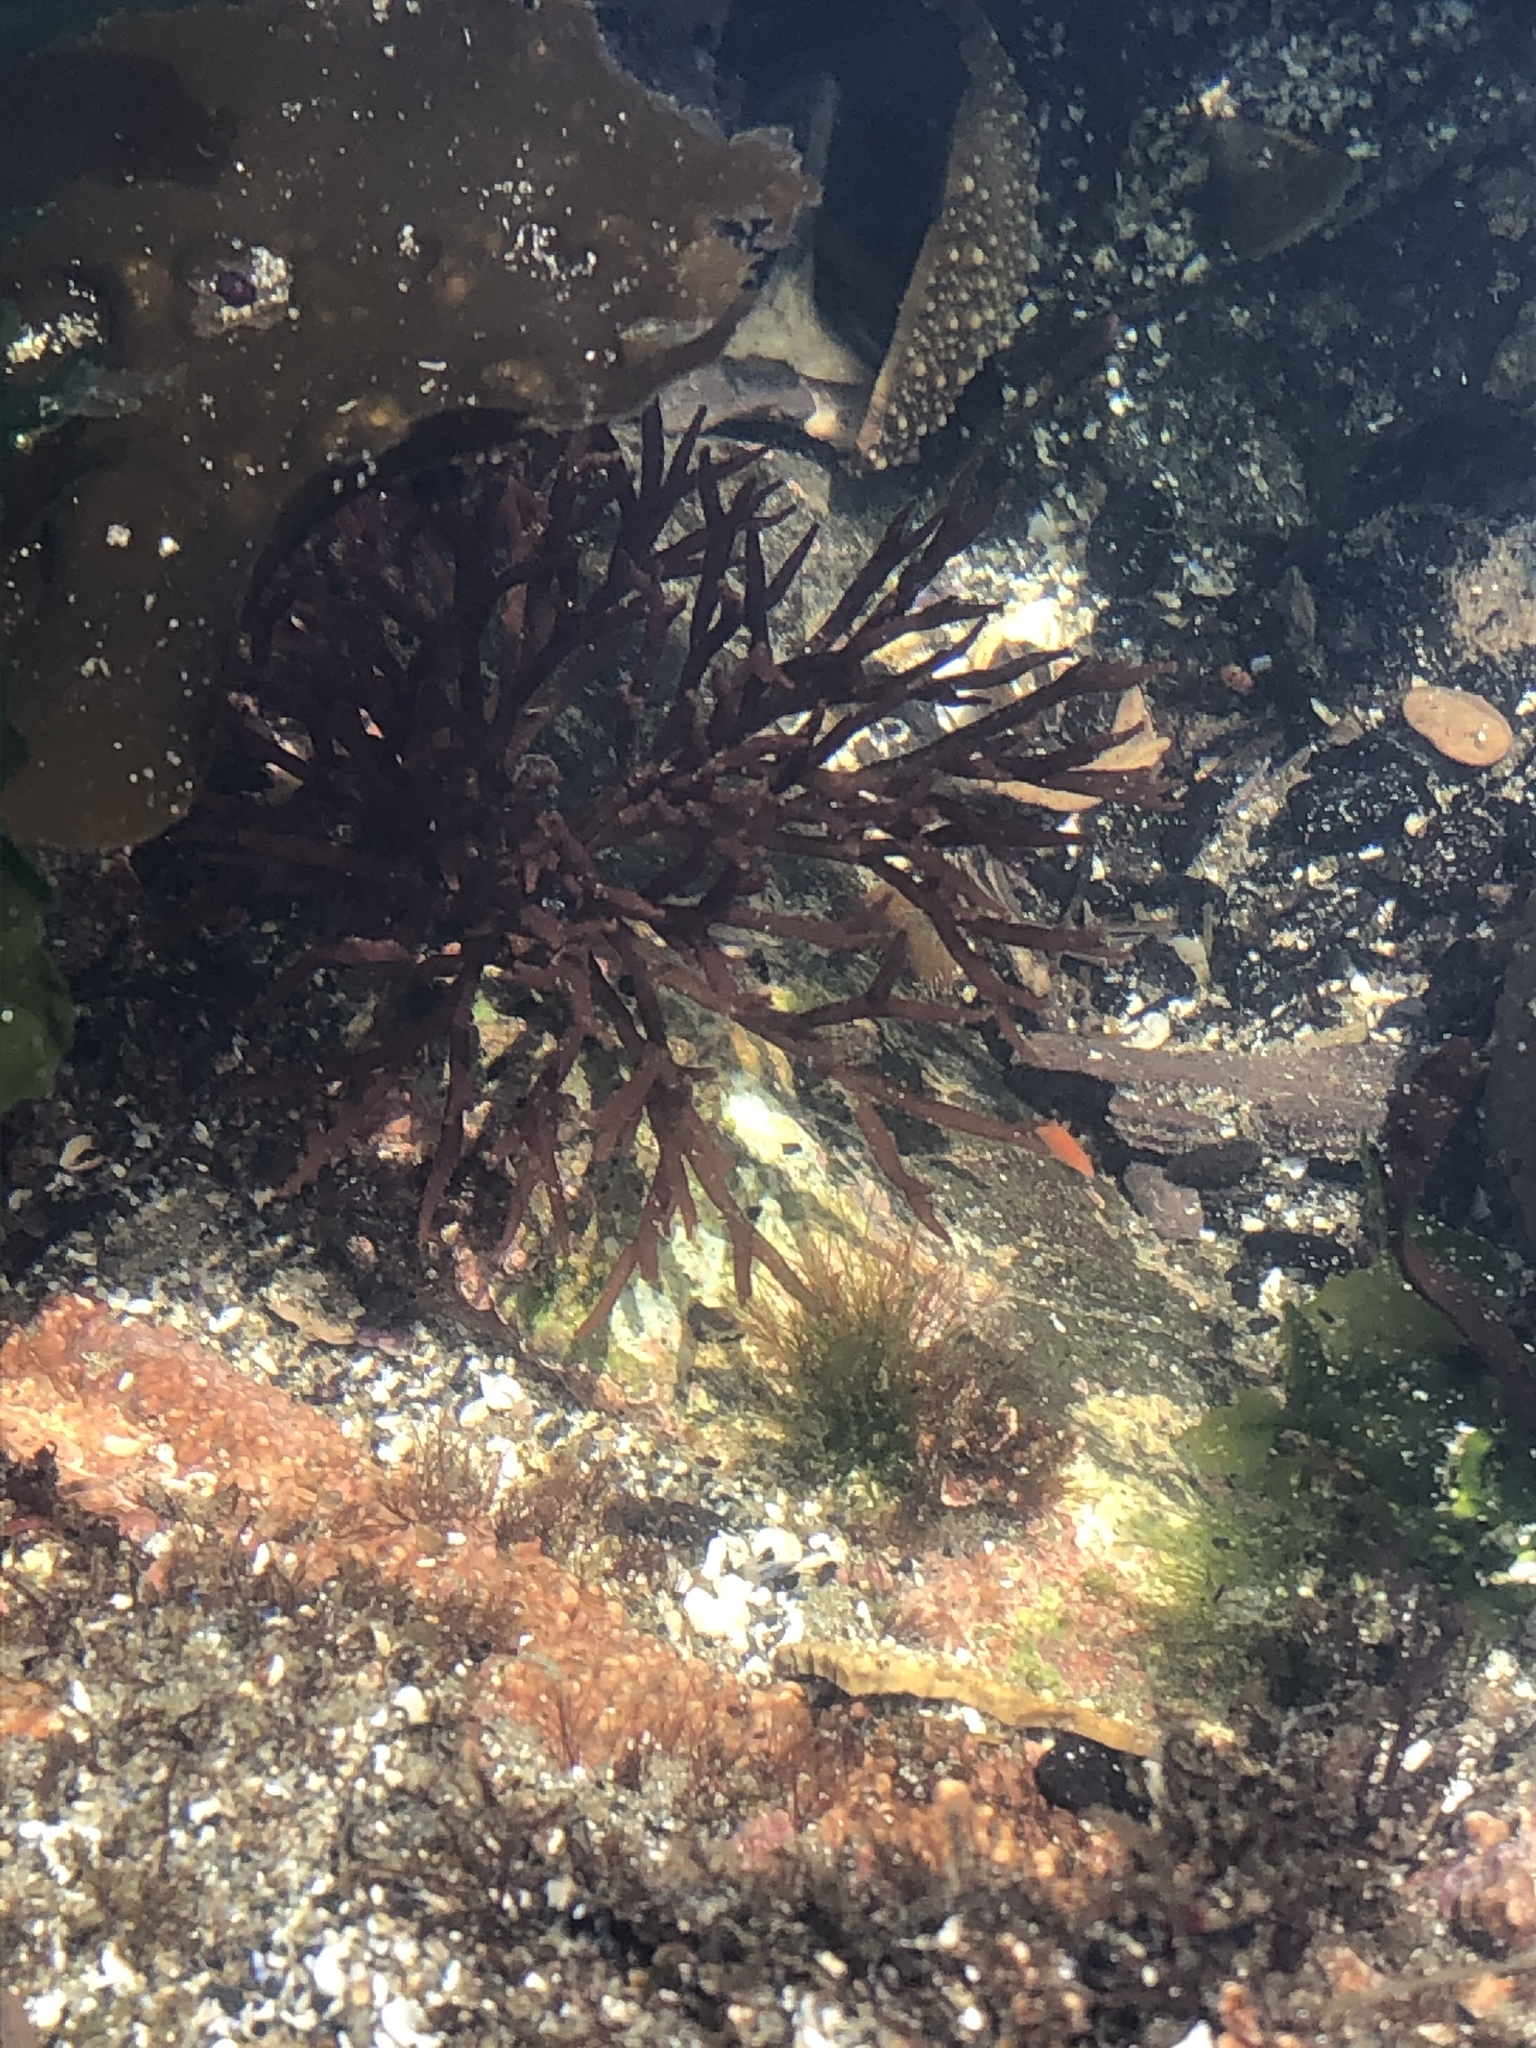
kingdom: Plantae
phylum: Rhodophyta
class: Florideophyceae
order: Nemaliales
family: Scinaiaceae
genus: Scinaia
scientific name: Scinaia confusa
